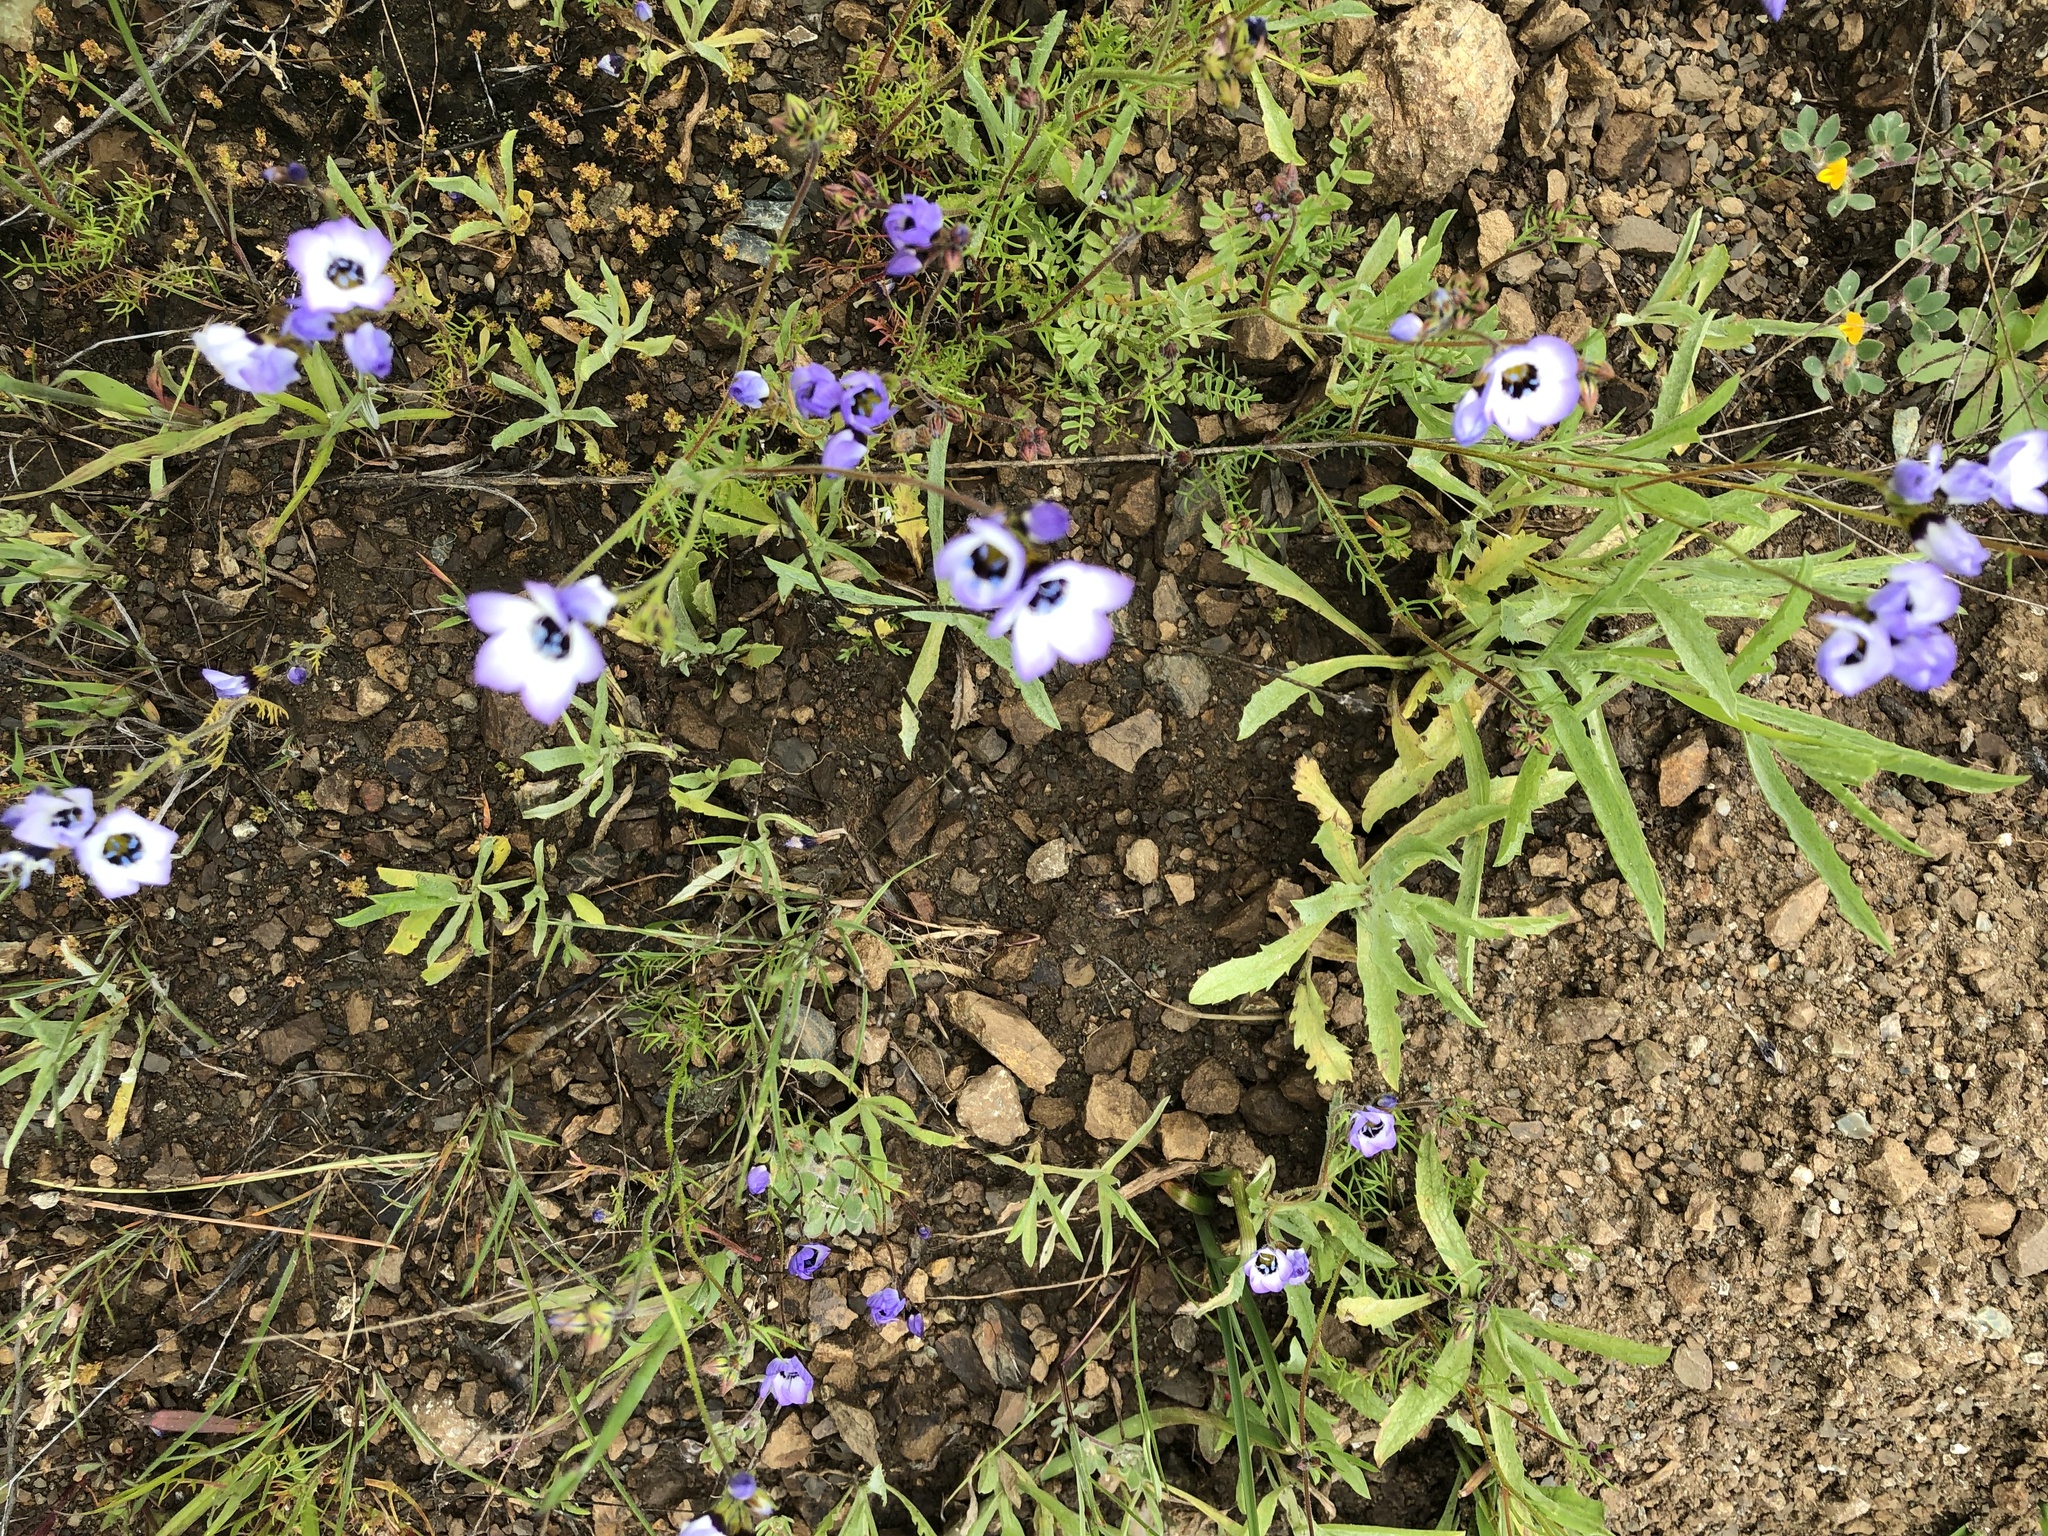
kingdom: Plantae
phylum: Tracheophyta
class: Magnoliopsida
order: Ericales
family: Polemoniaceae
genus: Gilia
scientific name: Gilia tricolor
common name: Bird's-eyes
